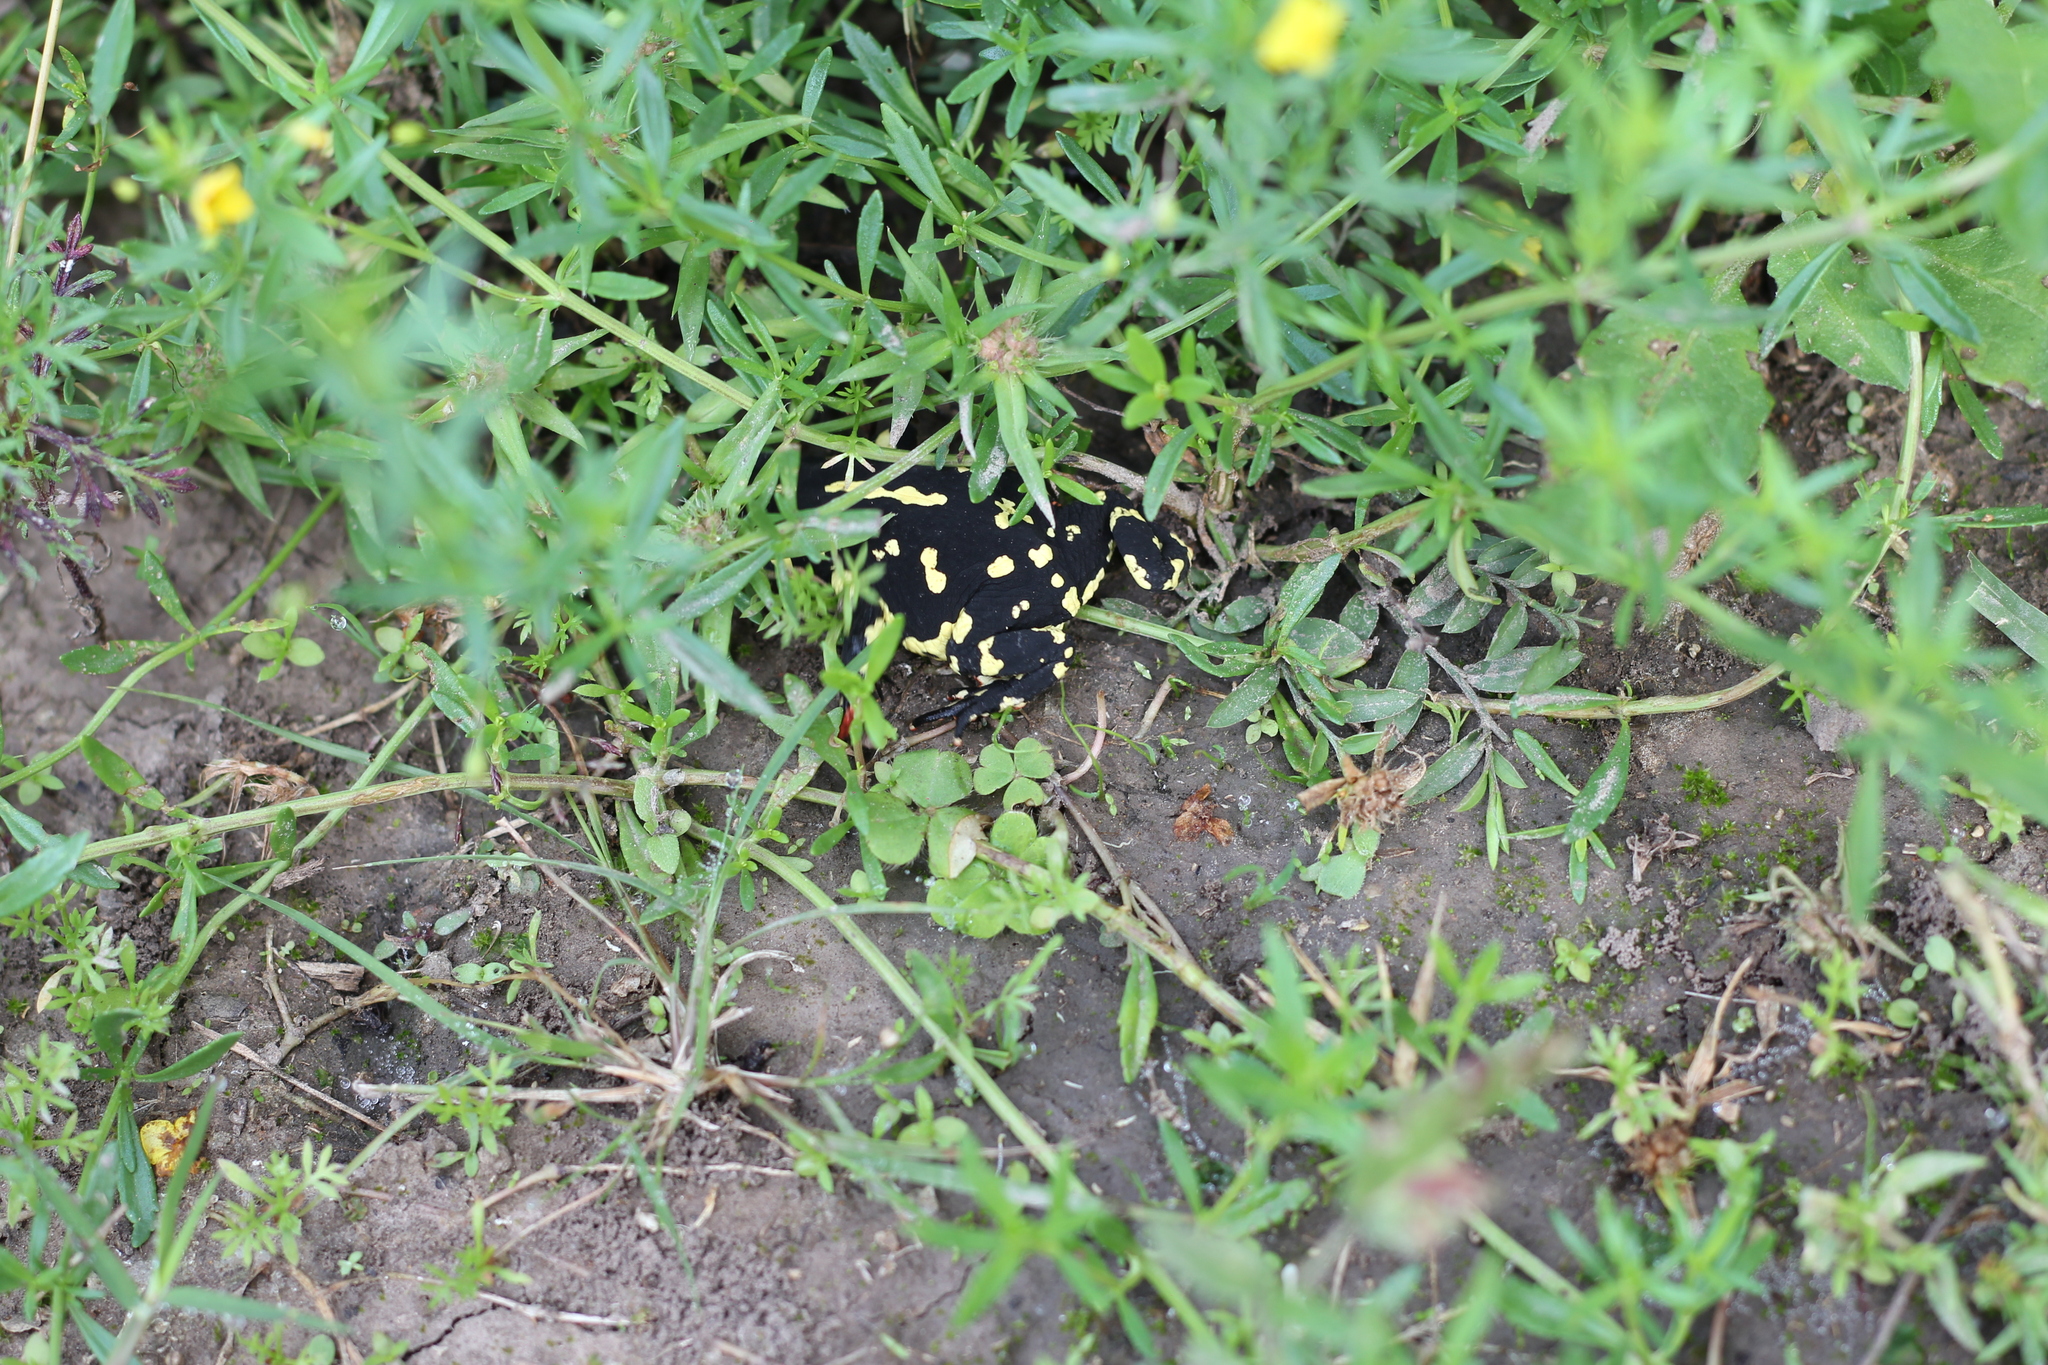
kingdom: Animalia
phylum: Chordata
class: Amphibia
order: Anura
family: Bufonidae
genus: Melanophryniscus
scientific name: Melanophryniscus klappenbachi
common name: Klappenbach’s red-bellied toad
